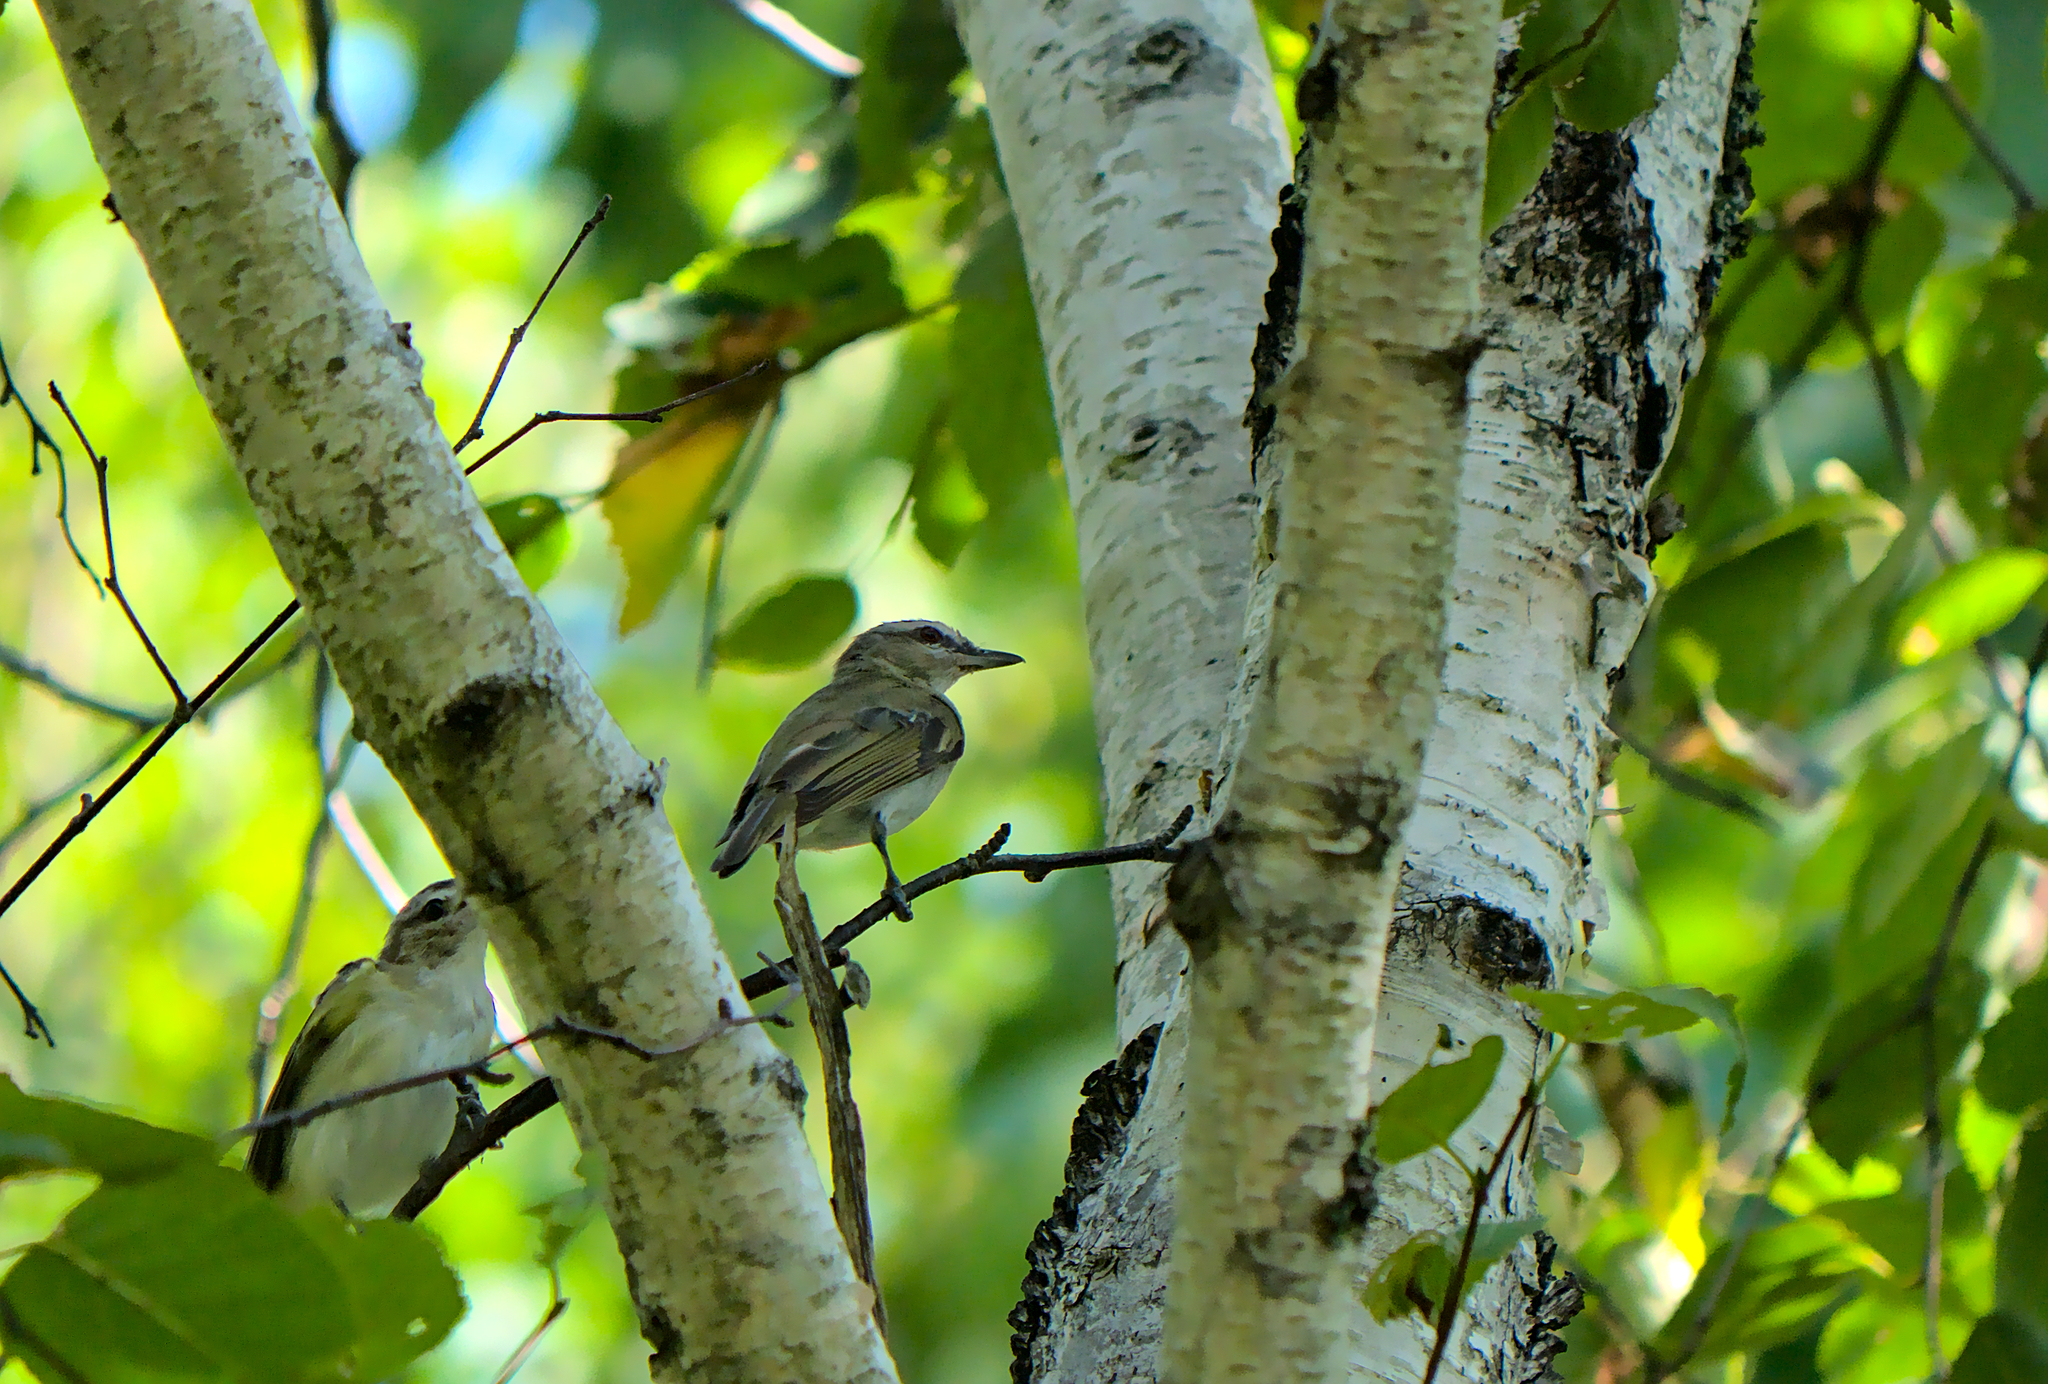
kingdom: Animalia
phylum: Chordata
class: Aves
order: Passeriformes
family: Vireonidae
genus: Vireo
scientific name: Vireo olivaceus
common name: Red-eyed vireo
